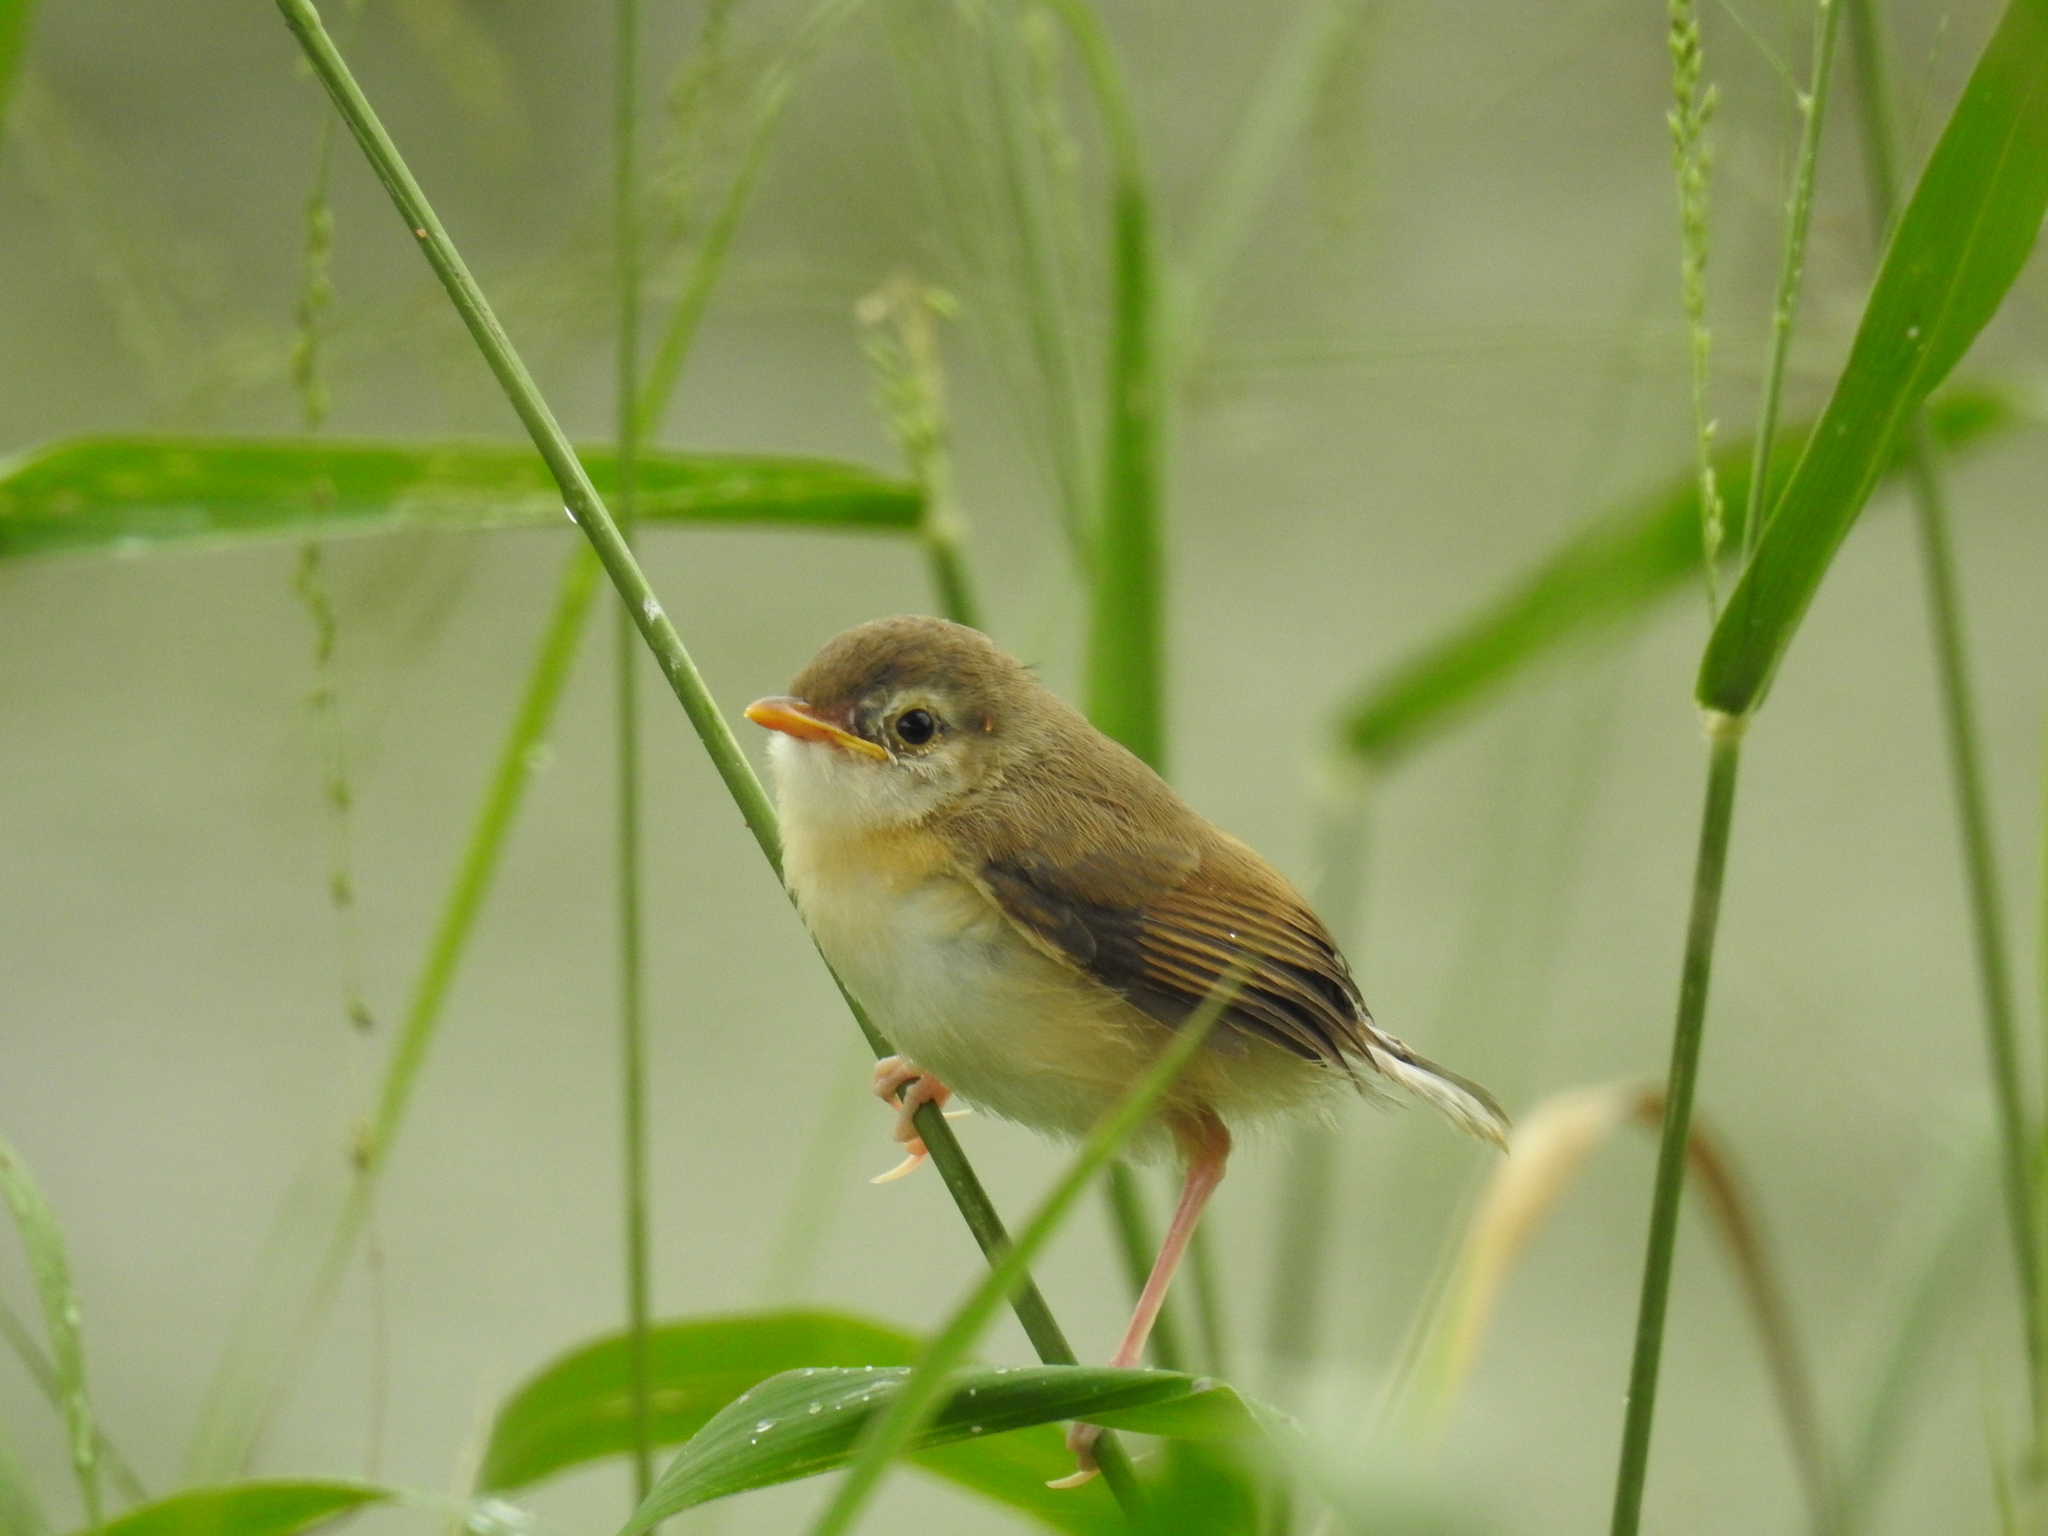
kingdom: Animalia
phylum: Chordata
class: Aves
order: Passeriformes
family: Cisticolidae
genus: Prinia
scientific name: Prinia inornata
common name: Plain prinia
